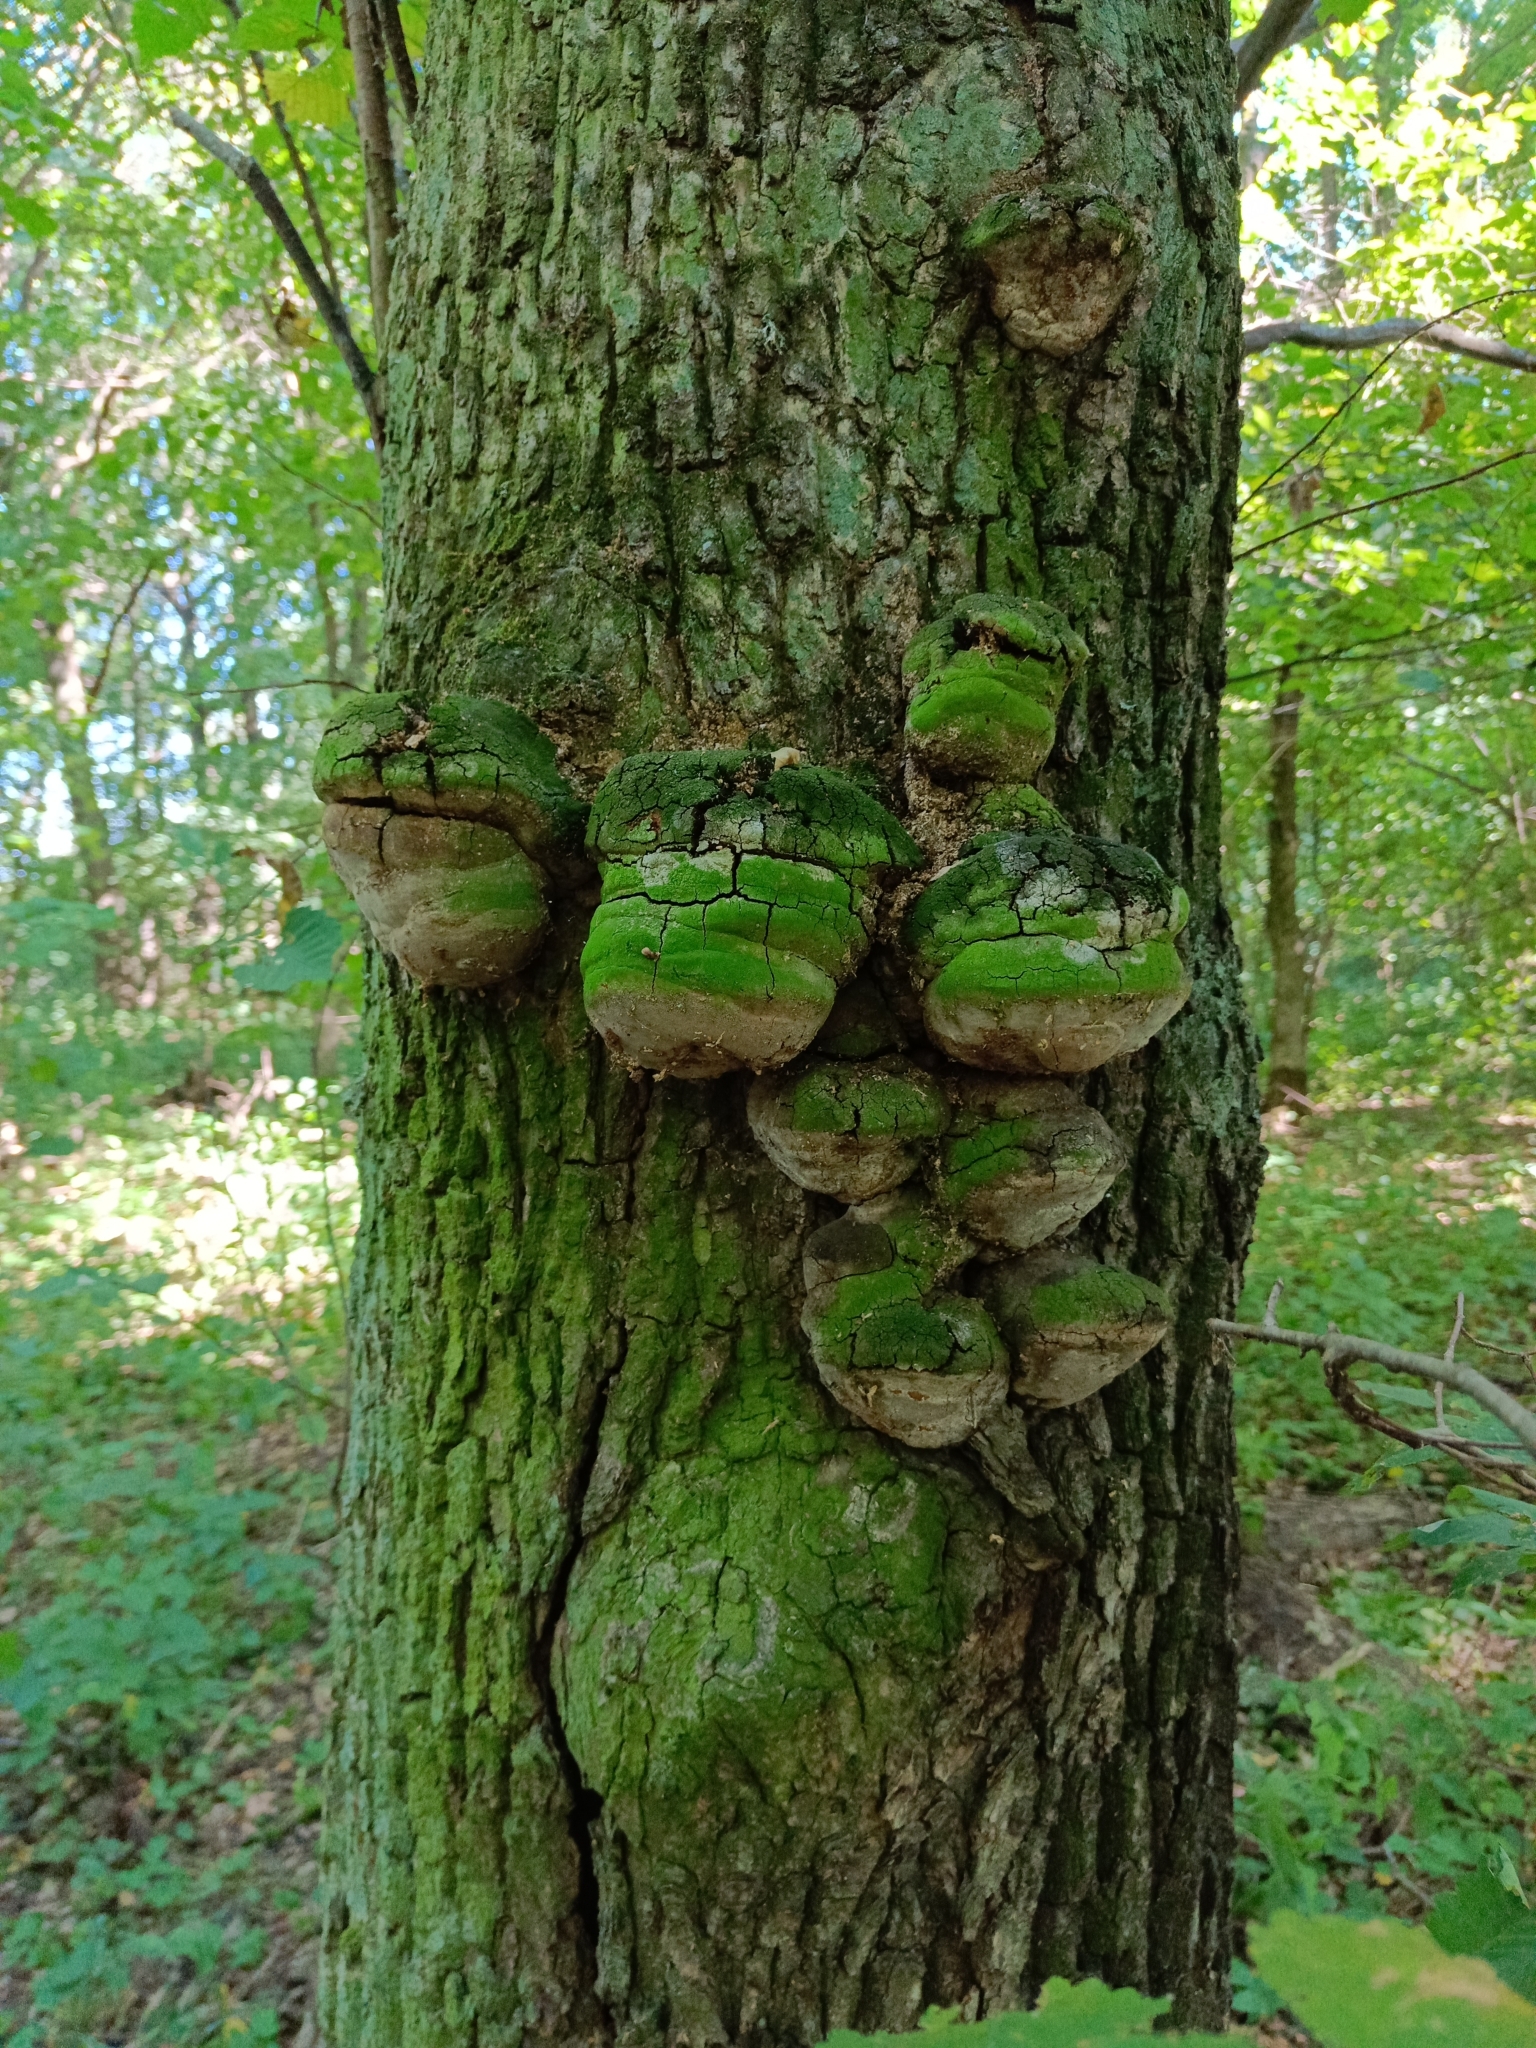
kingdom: Fungi
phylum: Basidiomycota
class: Agaricomycetes
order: Hymenochaetales
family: Hymenochaetaceae
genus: Fomitiporia
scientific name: Fomitiporia robusta
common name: Robust bracket
